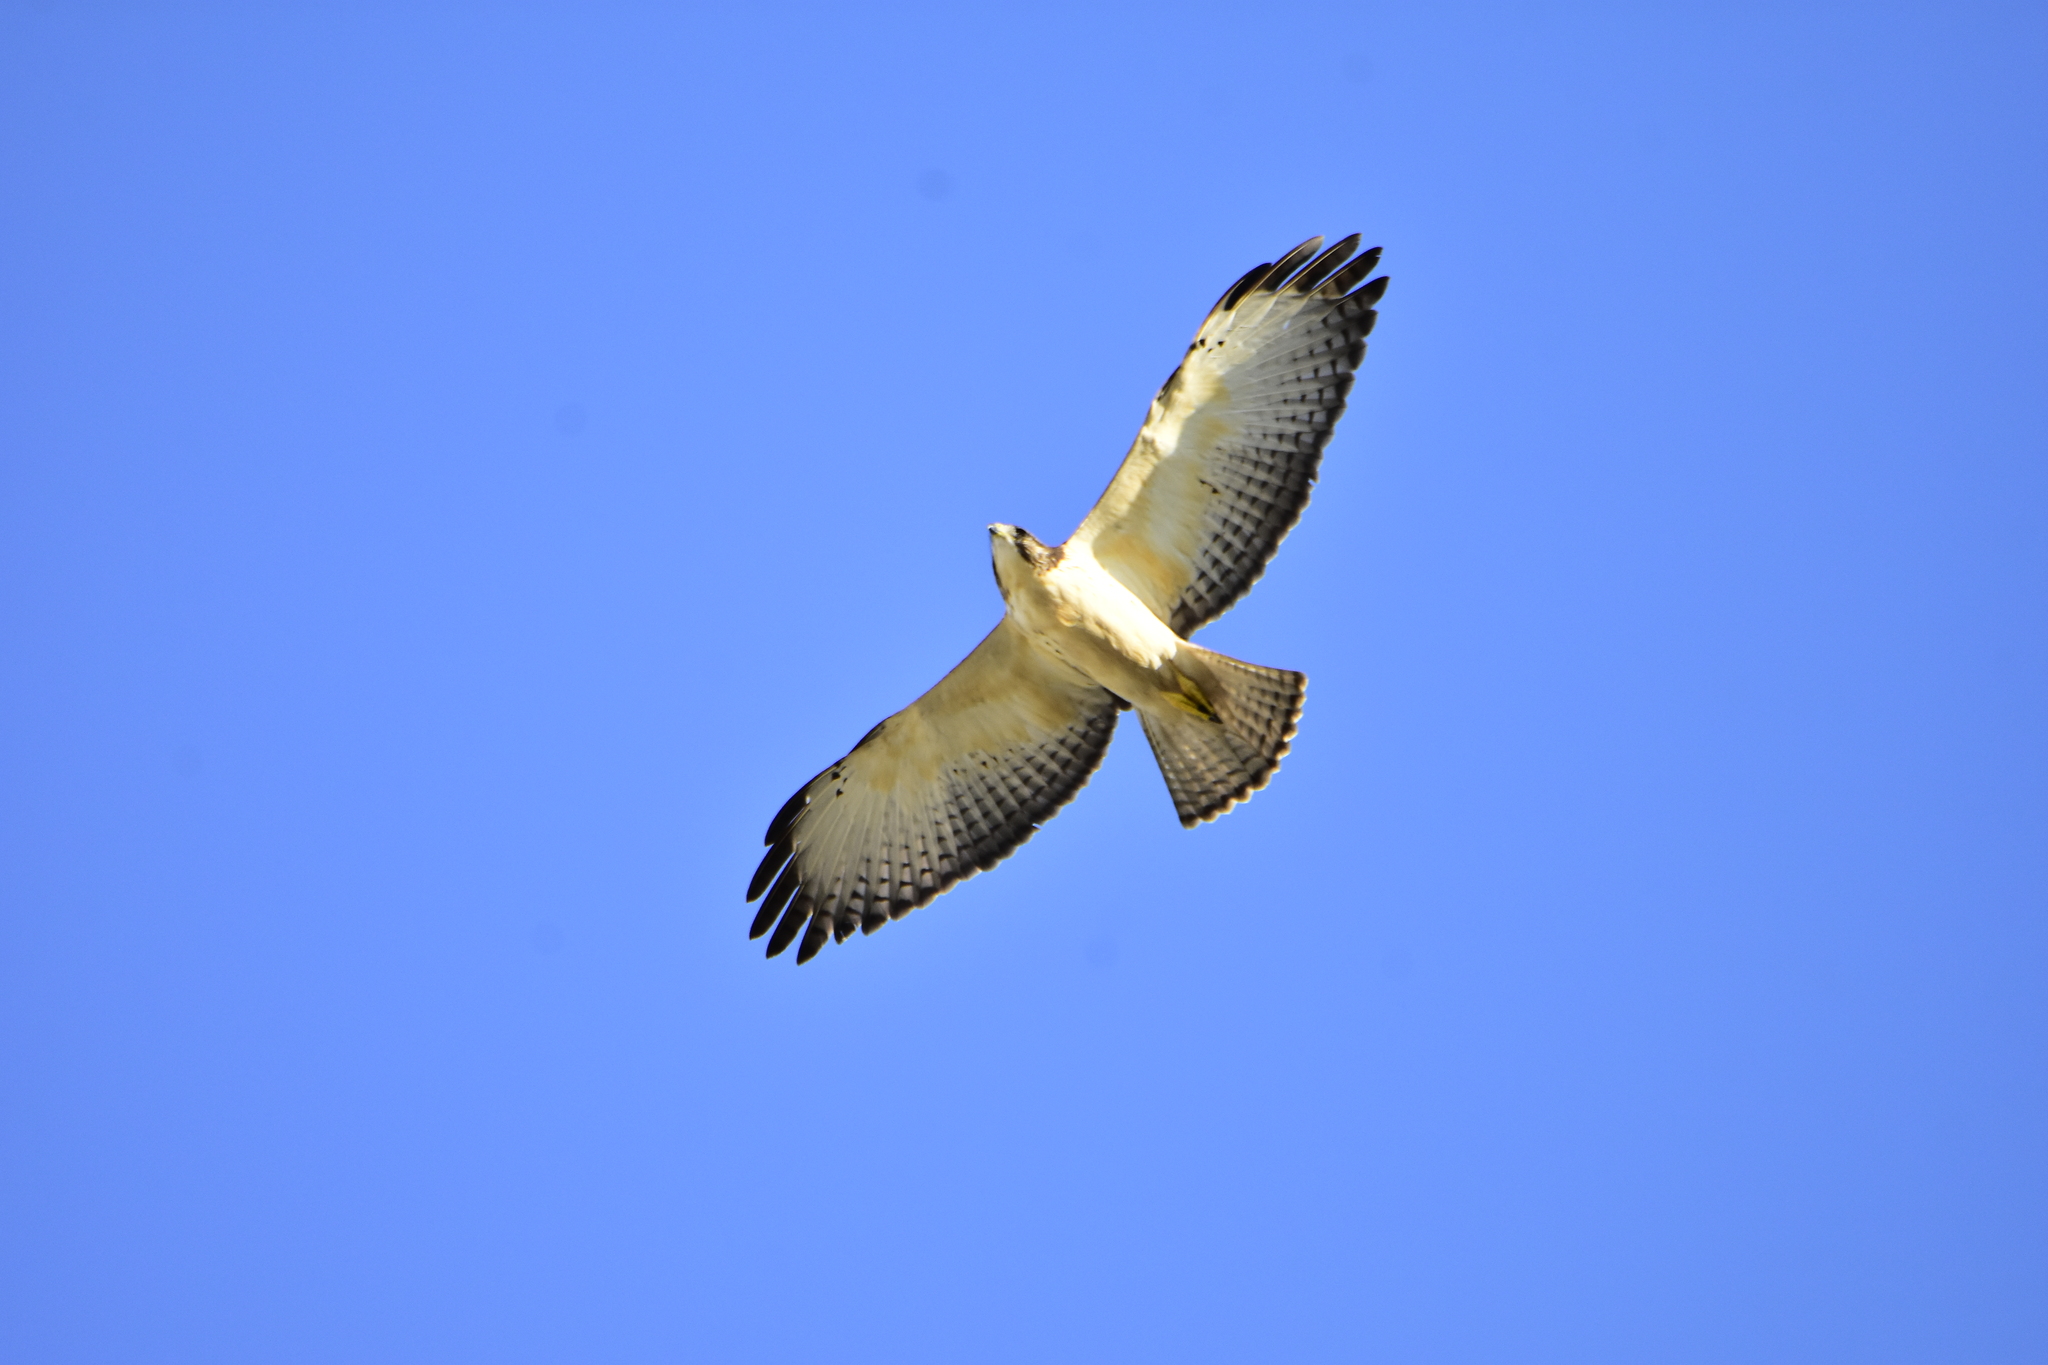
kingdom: Animalia
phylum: Chordata
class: Aves
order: Accipitriformes
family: Accipitridae
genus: Buteo
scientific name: Buteo brachyurus
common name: Short-tailed hawk
